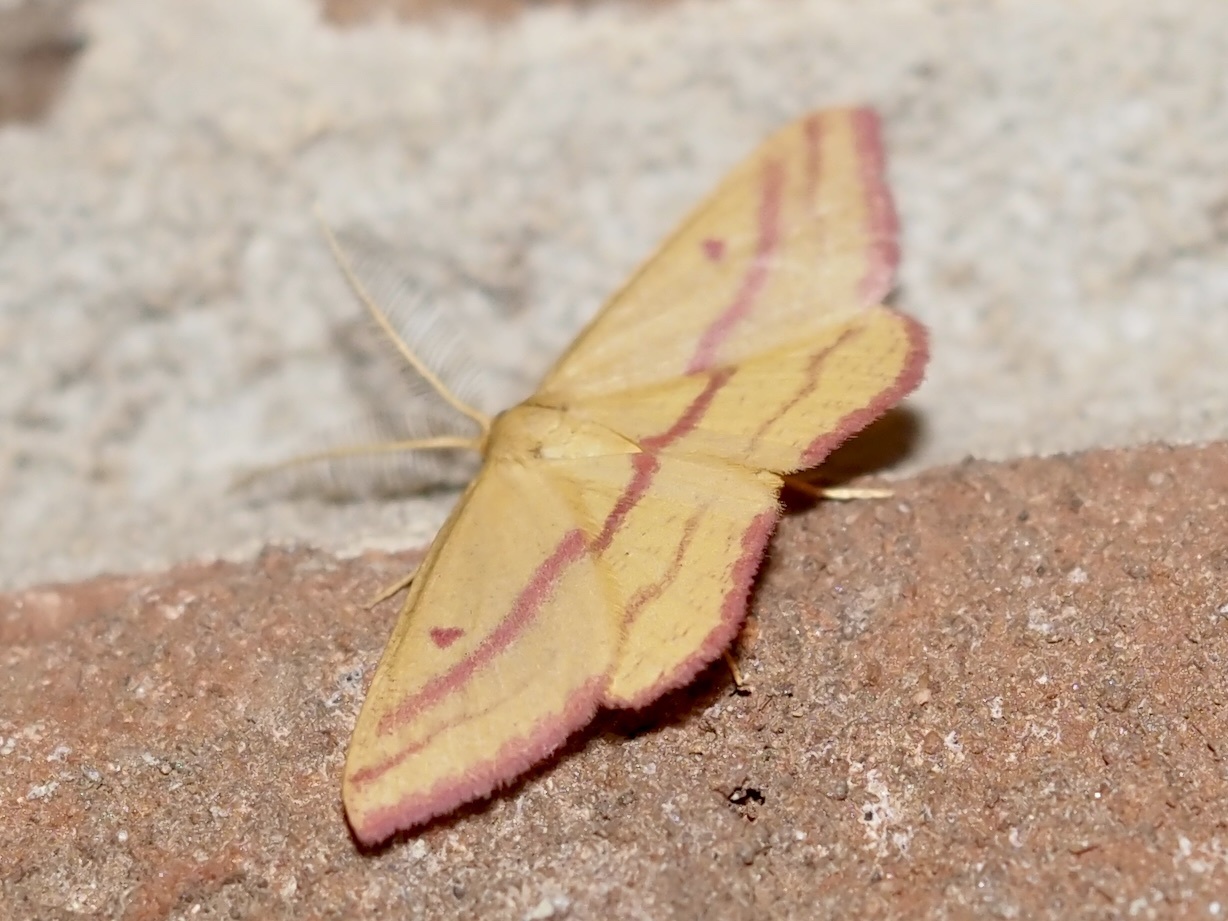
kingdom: Animalia
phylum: Arthropoda
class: Insecta
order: Lepidoptera
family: Geometridae
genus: Haematopis
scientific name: Haematopis grataria
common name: Chickweed geometer
